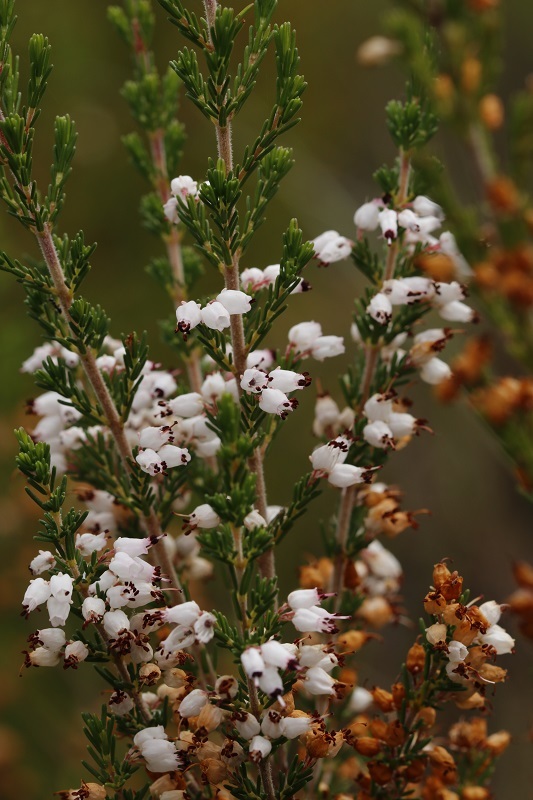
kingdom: Plantae
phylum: Tracheophyta
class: Magnoliopsida
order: Ericales
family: Ericaceae
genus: Erica
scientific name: Erica unilateralis
